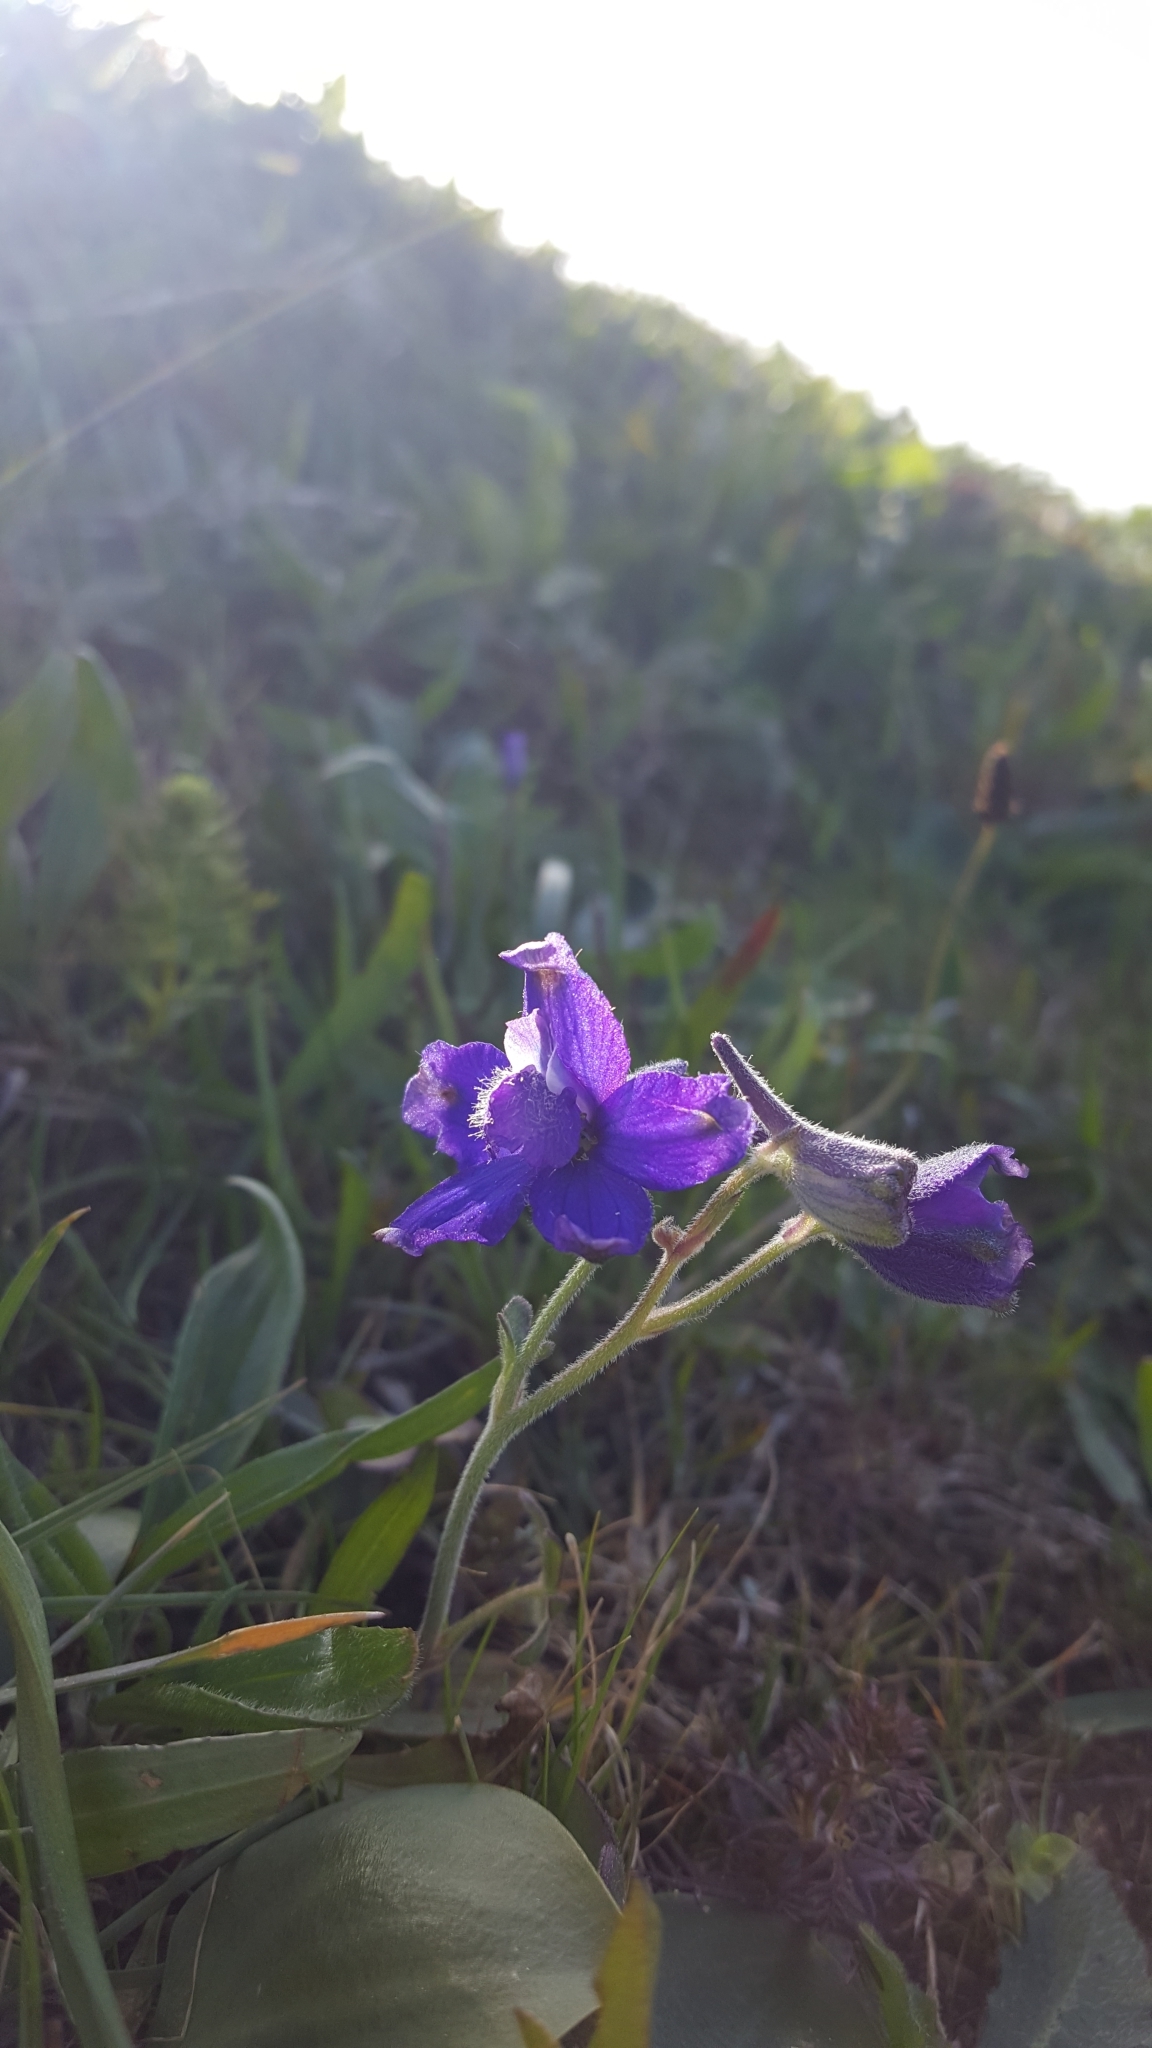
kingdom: Plantae
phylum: Tracheophyta
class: Magnoliopsida
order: Ranunculales
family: Ranunculaceae
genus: Delphinium
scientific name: Delphinium decorum
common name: Coast larkspur
